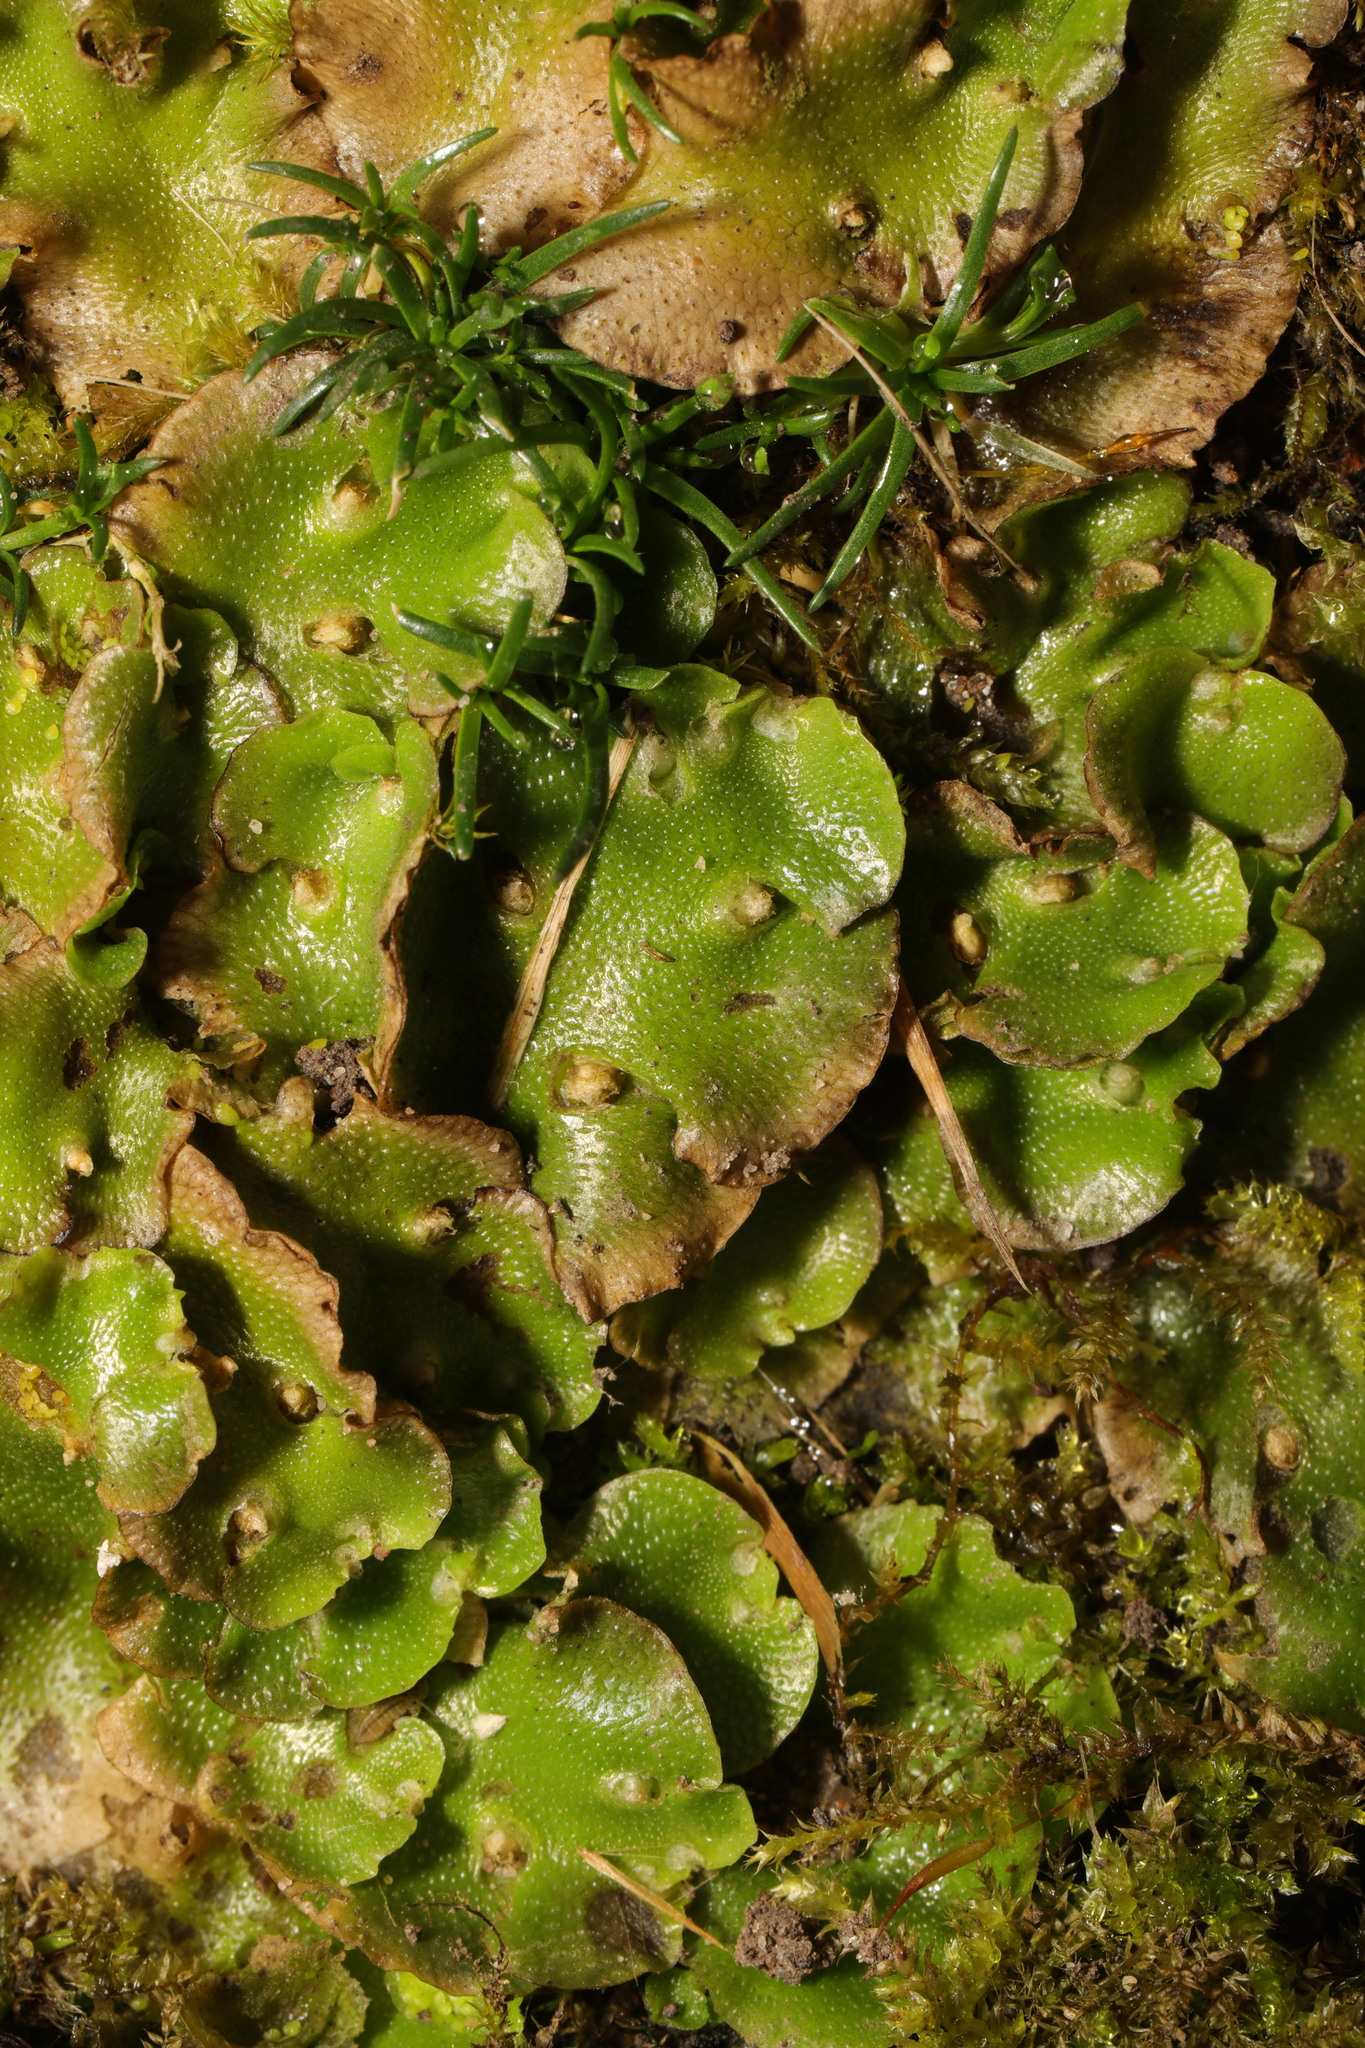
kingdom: Plantae
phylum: Marchantiophyta
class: Marchantiopsida
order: Lunulariales
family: Lunulariaceae
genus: Lunularia
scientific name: Lunularia cruciata
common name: Crescent-cup liverwort
